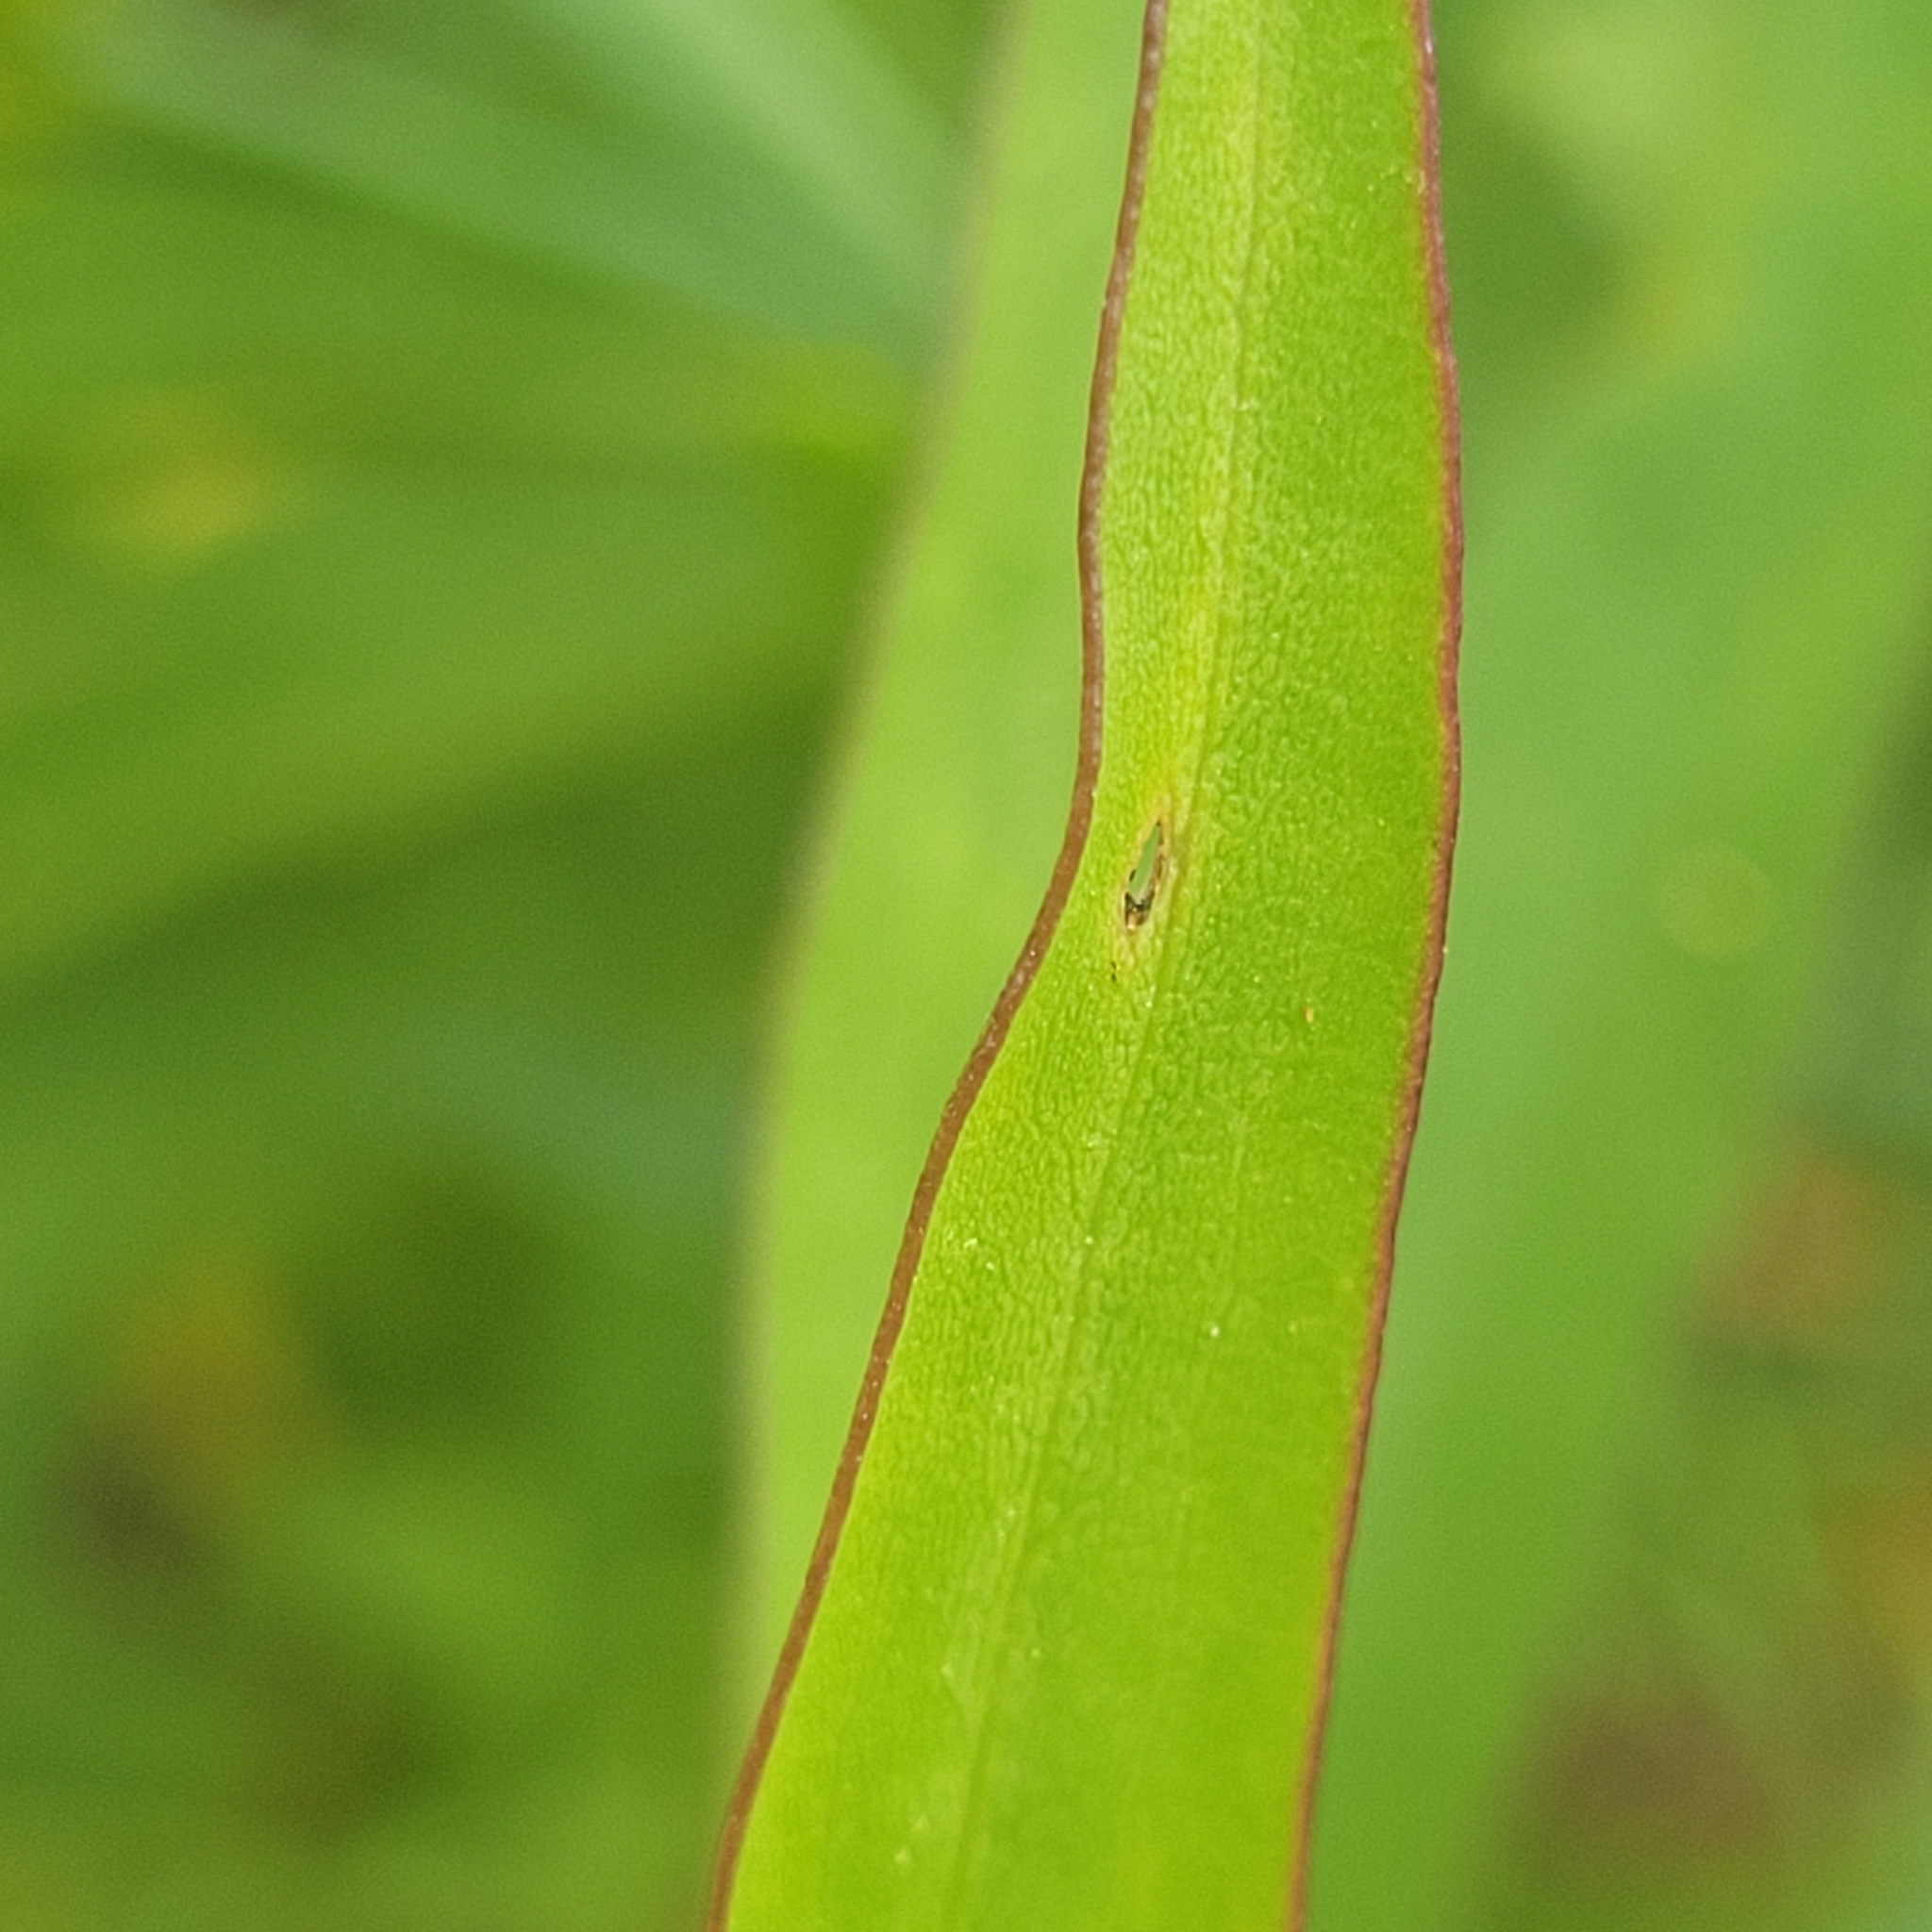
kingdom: Plantae
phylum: Tracheophyta
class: Magnoliopsida
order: Asterales
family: Asteraceae
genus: Solidago
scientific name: Solidago sempervirens
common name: Salt-marsh goldenrod
